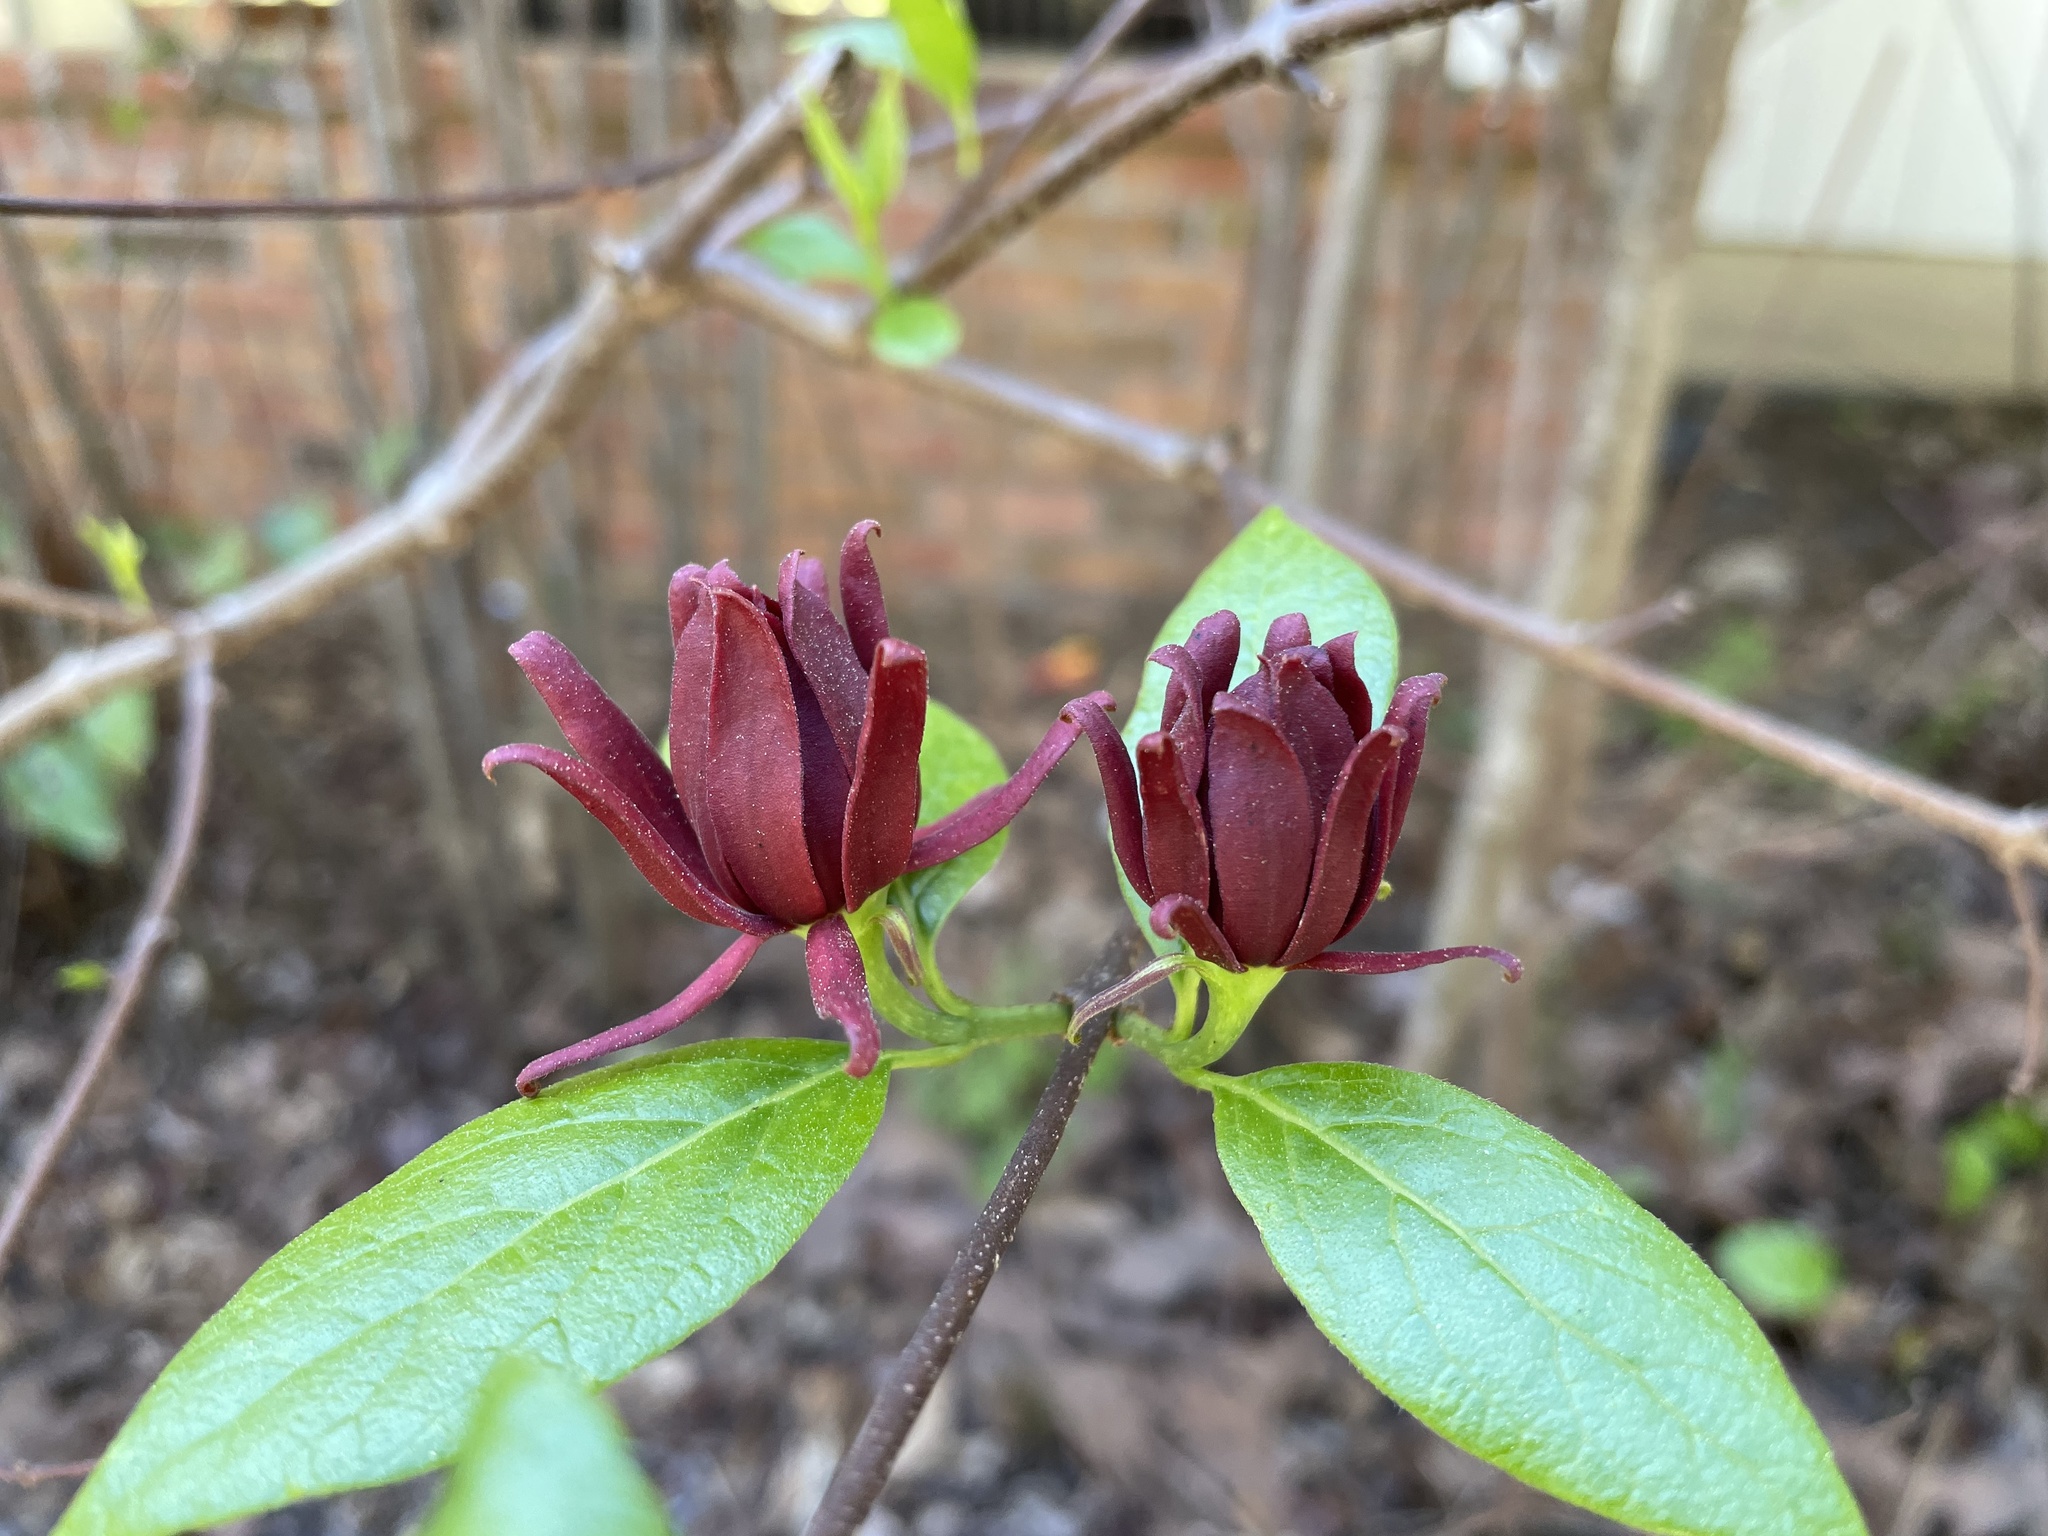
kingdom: Plantae
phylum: Tracheophyta
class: Magnoliopsida
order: Laurales
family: Calycanthaceae
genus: Calycanthus
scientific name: Calycanthus floridus
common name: Carolina-allspice
